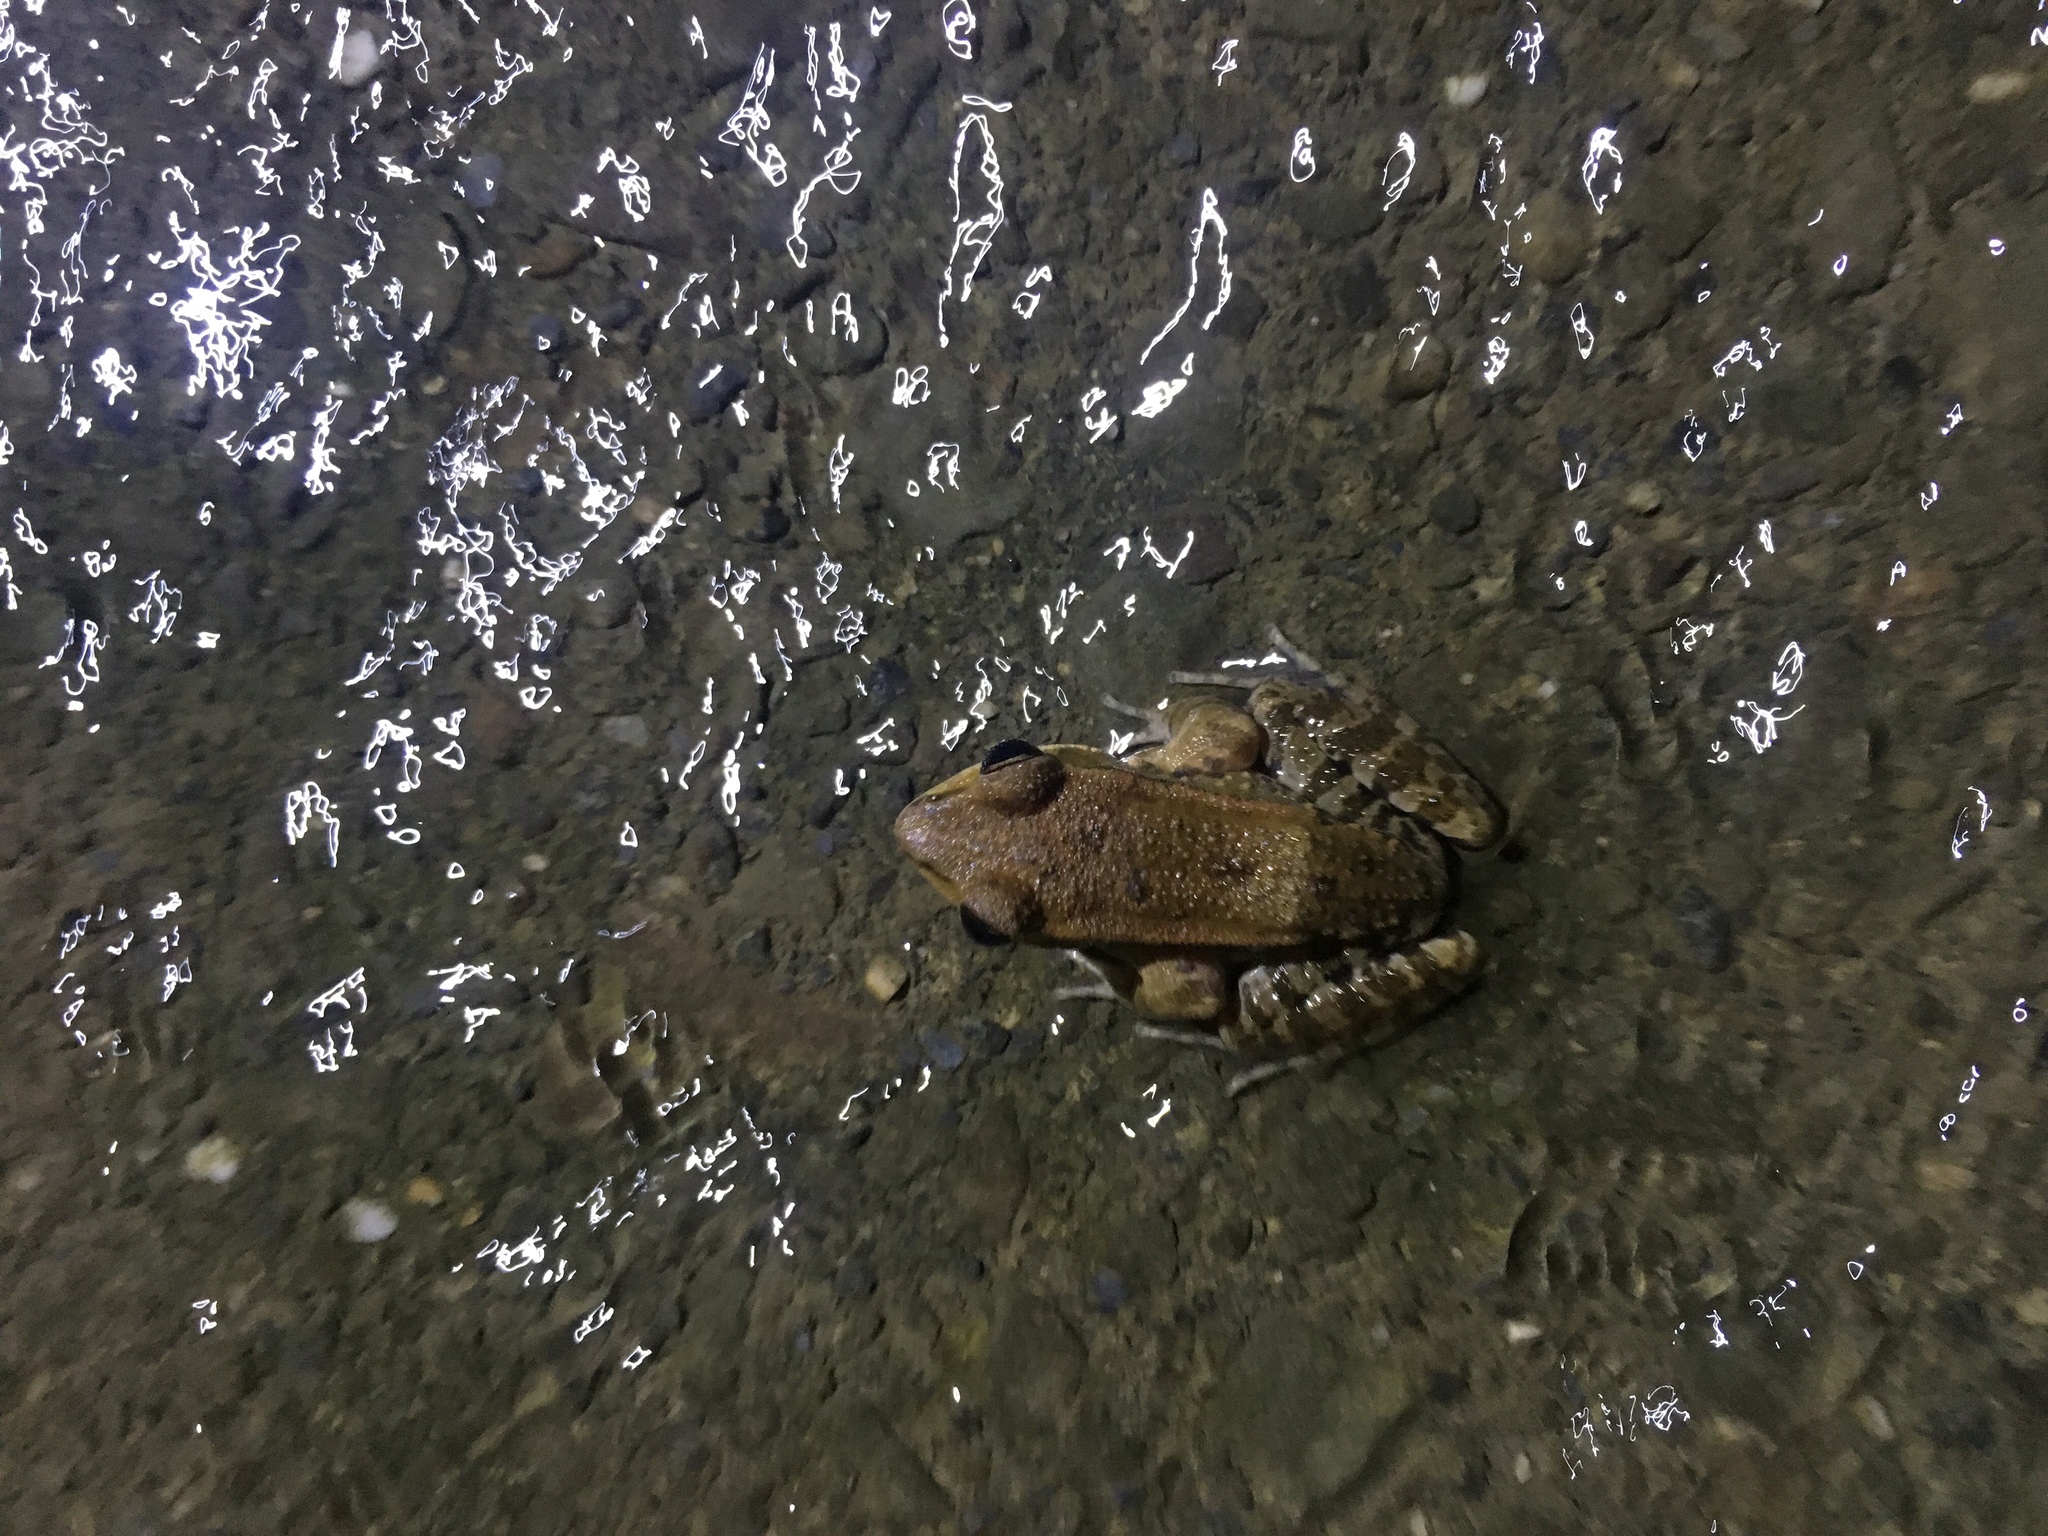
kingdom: Animalia
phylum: Chordata
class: Amphibia
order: Anura
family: Ranidae
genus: Hylarana
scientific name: Hylarana latouchii
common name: Broad-folded frog
